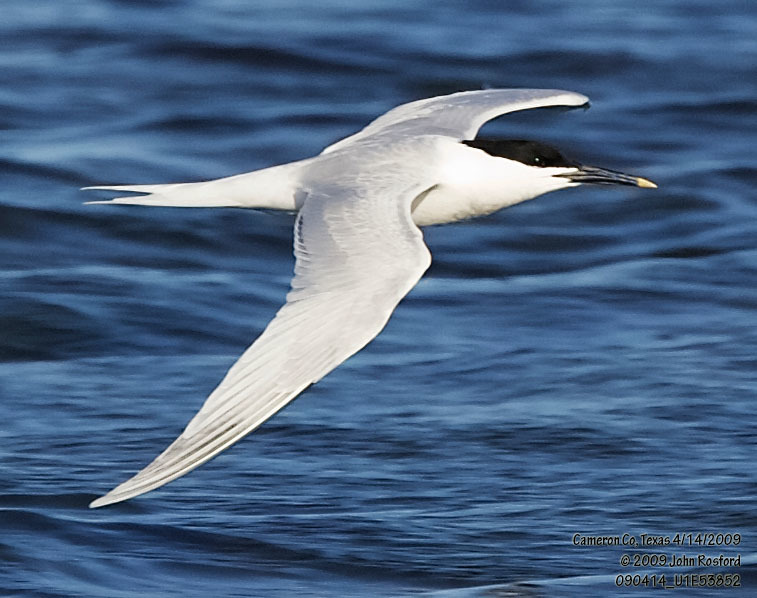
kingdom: Animalia
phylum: Chordata
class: Aves
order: Charadriiformes
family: Laridae
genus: Thalasseus
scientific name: Thalasseus sandvicensis
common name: Sandwich tern
